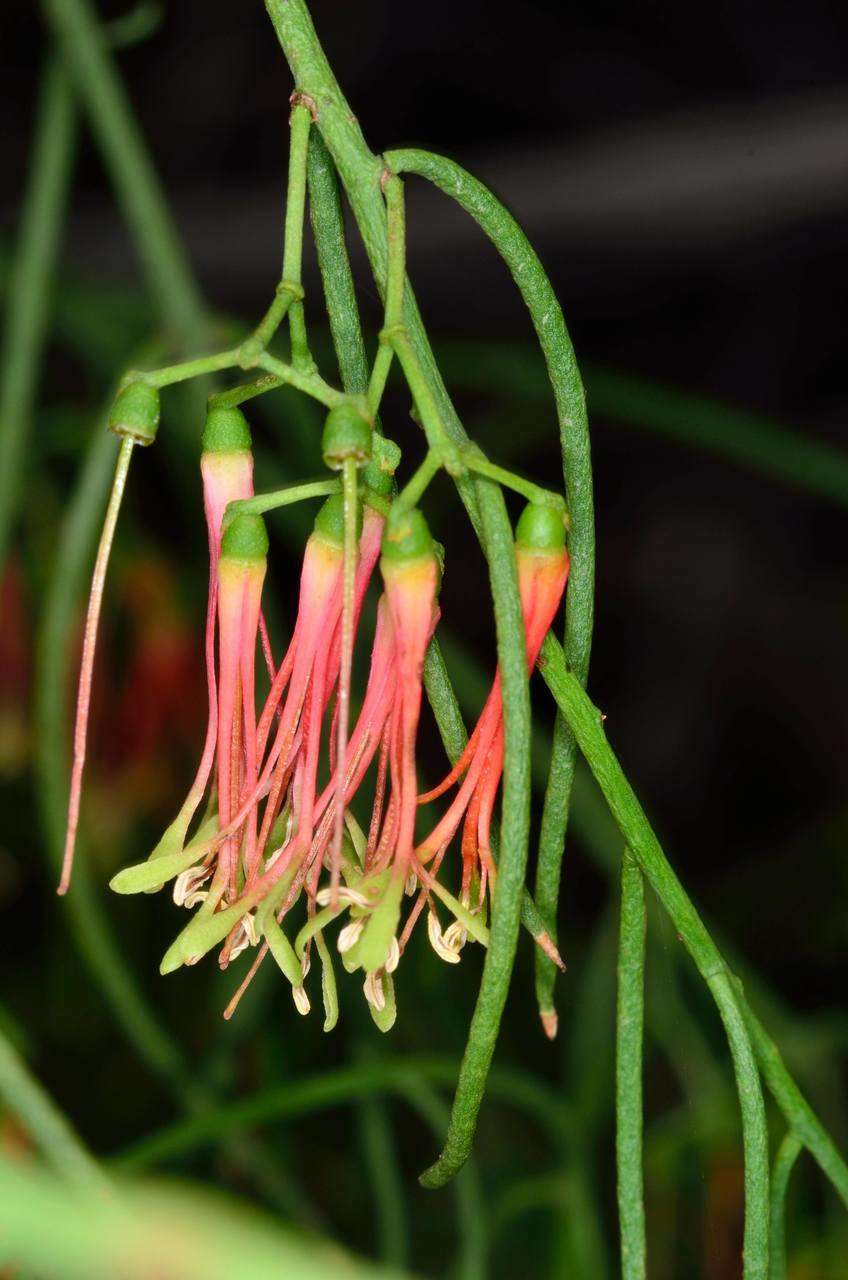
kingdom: Plantae
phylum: Tracheophyta
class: Magnoliopsida
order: Santalales
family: Loranthaceae
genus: Amyema
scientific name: Amyema preissii
